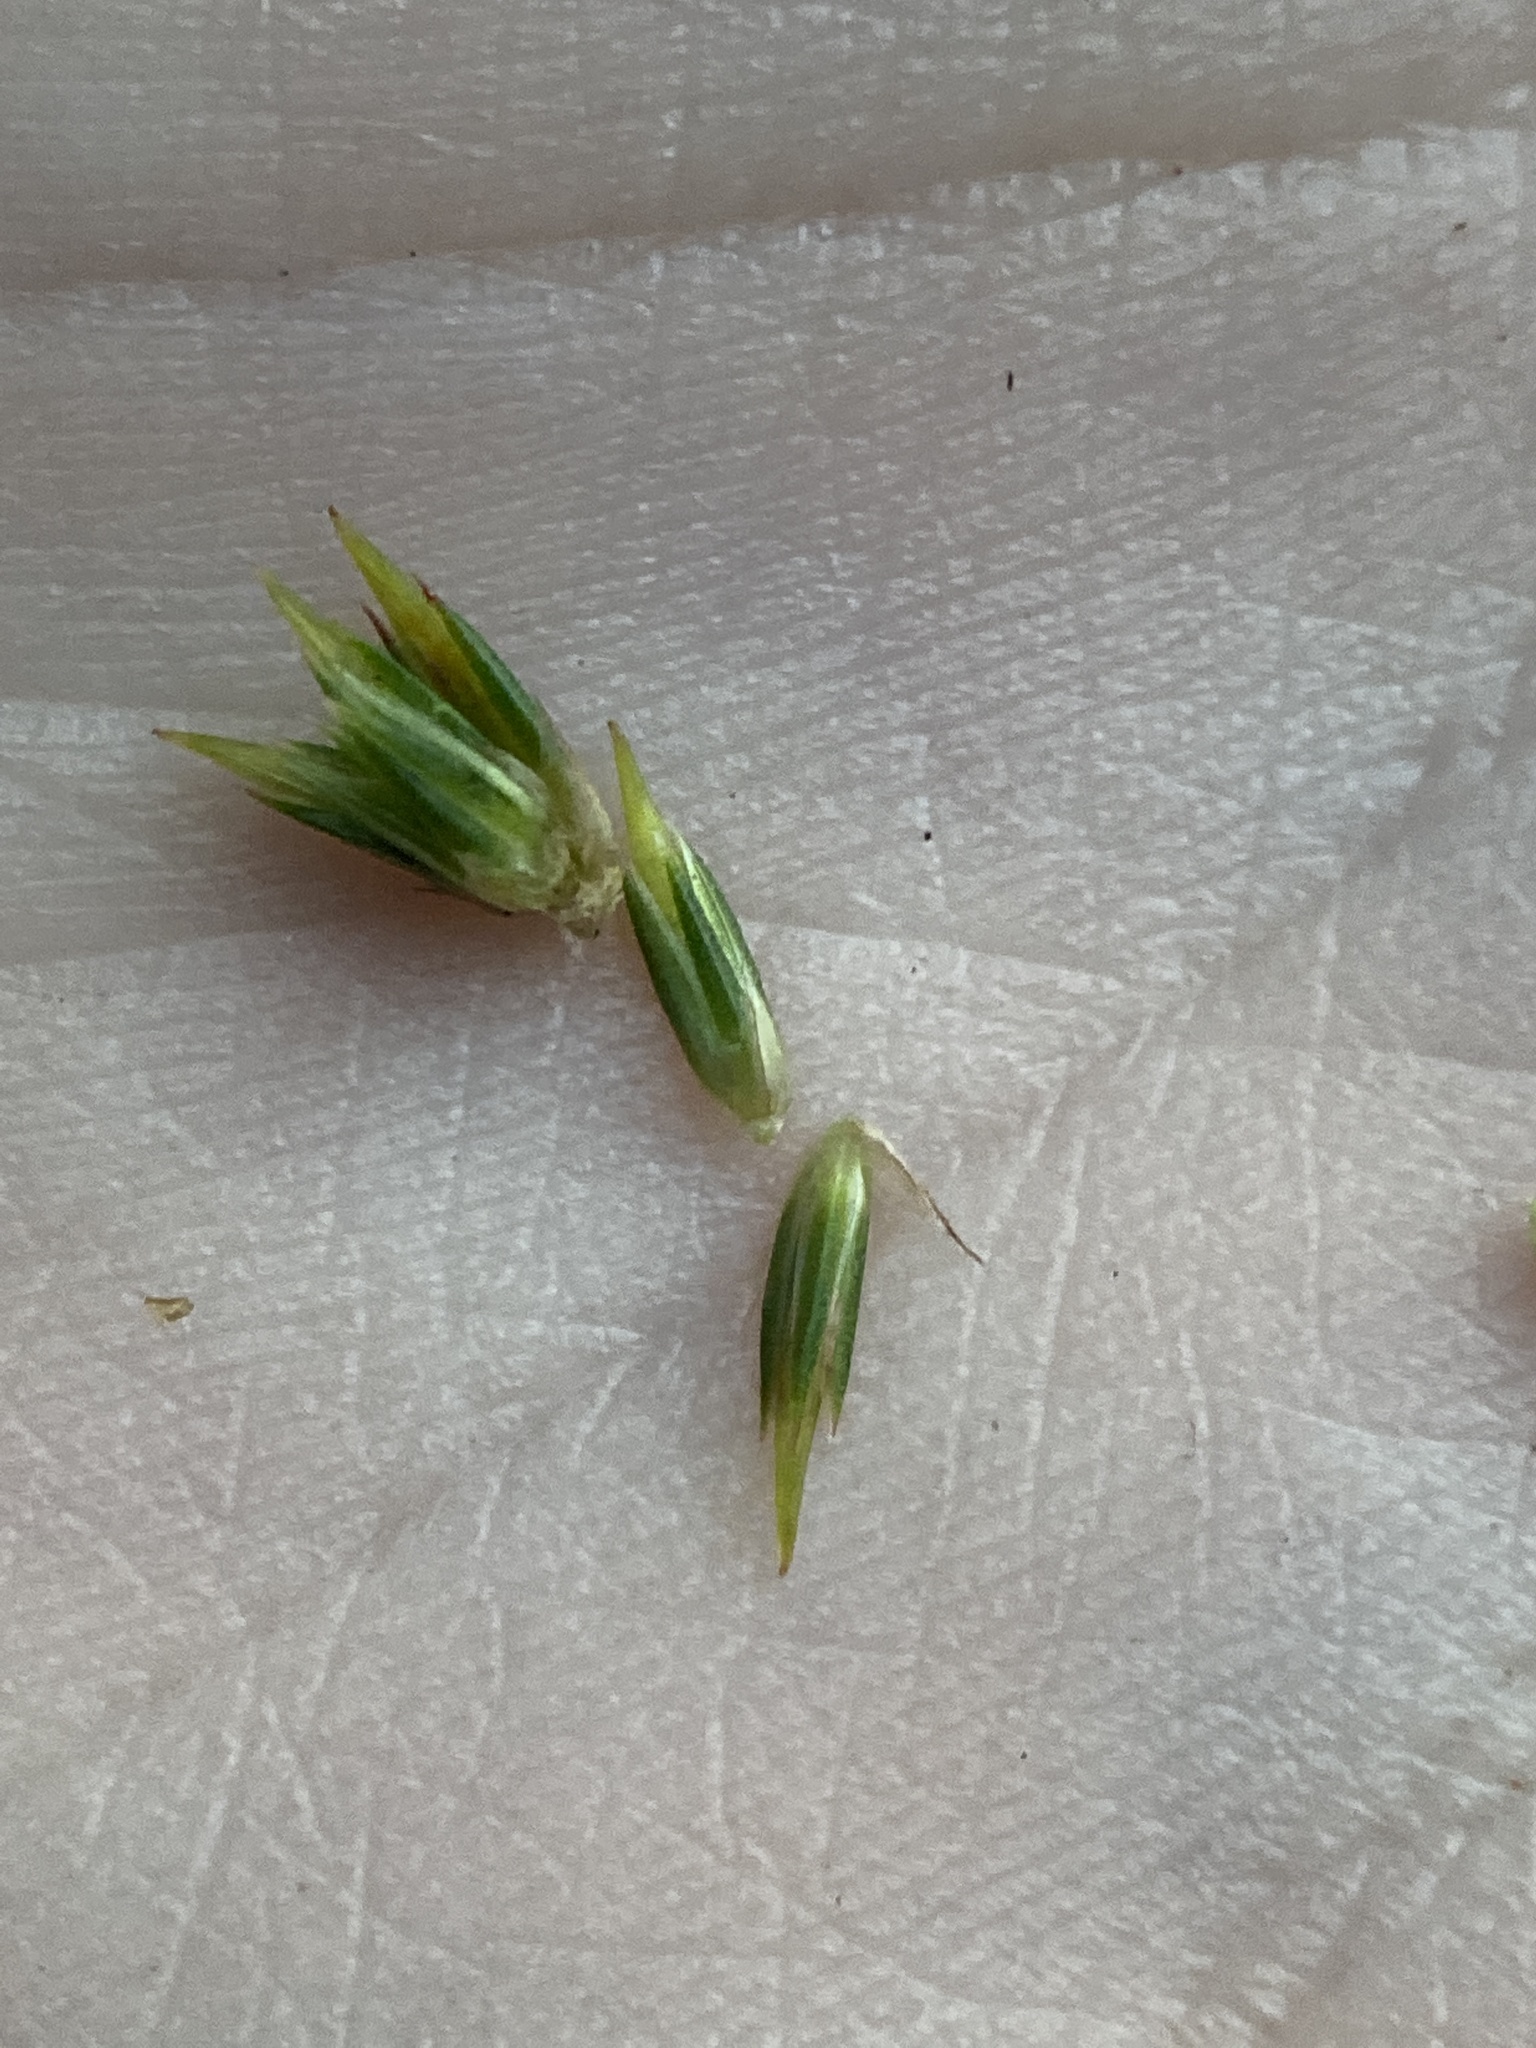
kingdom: Plantae
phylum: Tracheophyta
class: Liliopsida
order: Poales
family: Juncaceae
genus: Juncus
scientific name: Juncus validus
